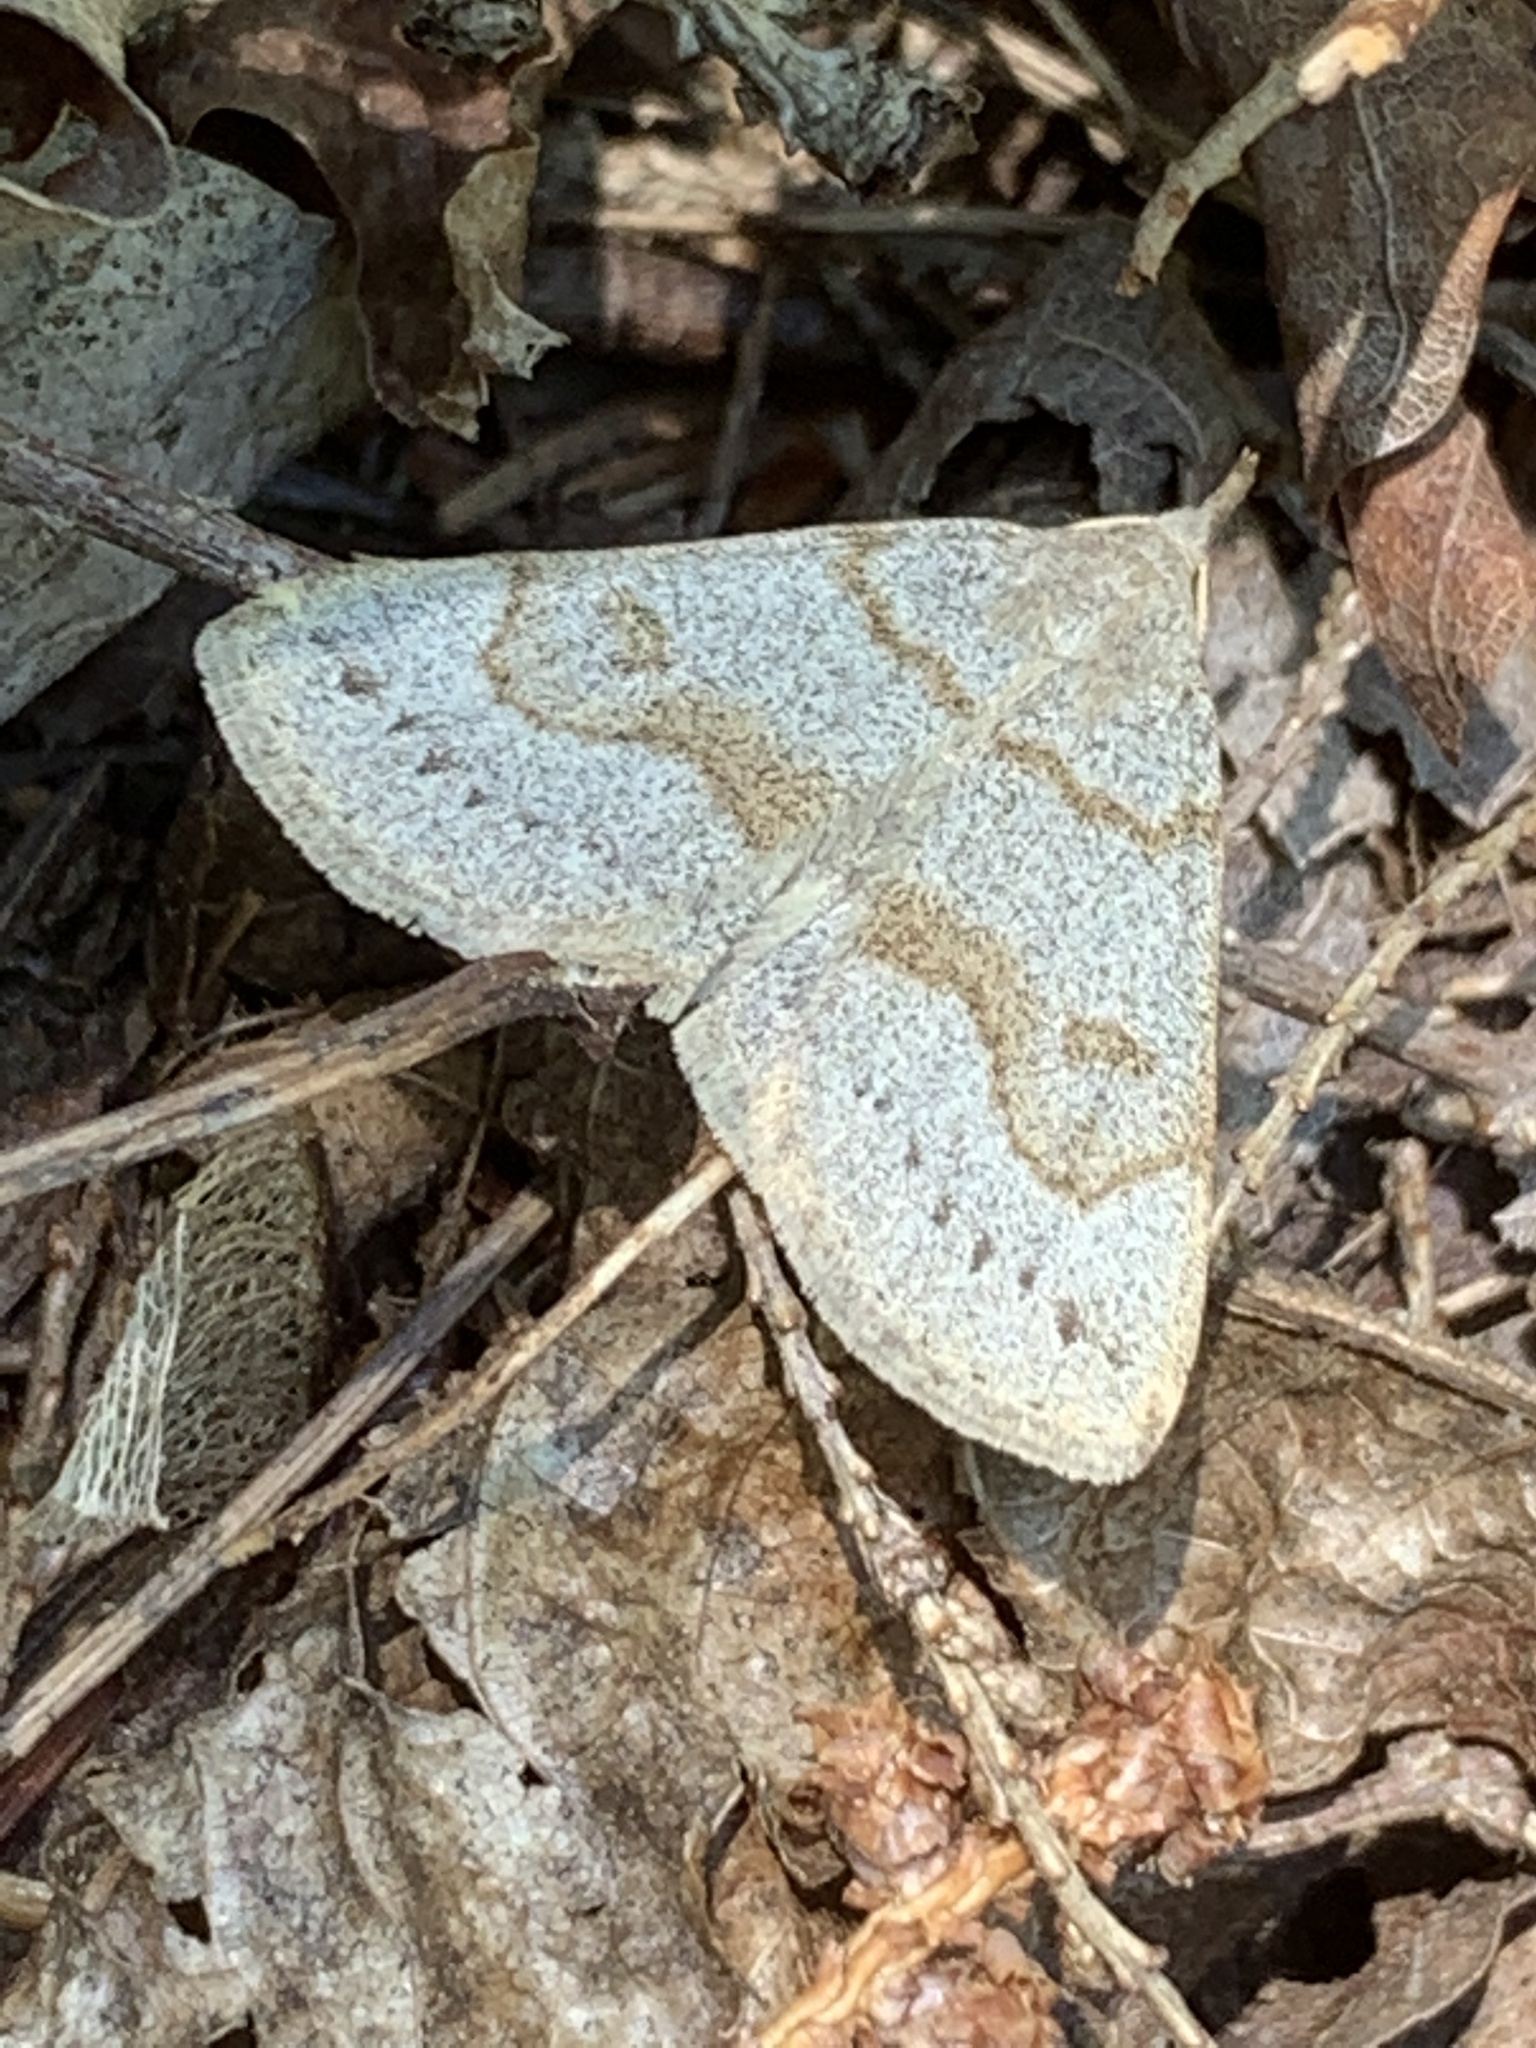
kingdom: Animalia
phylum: Arthropoda
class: Insecta
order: Lepidoptera
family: Erebidae
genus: Macrochilo
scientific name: Macrochilo morbidalis
